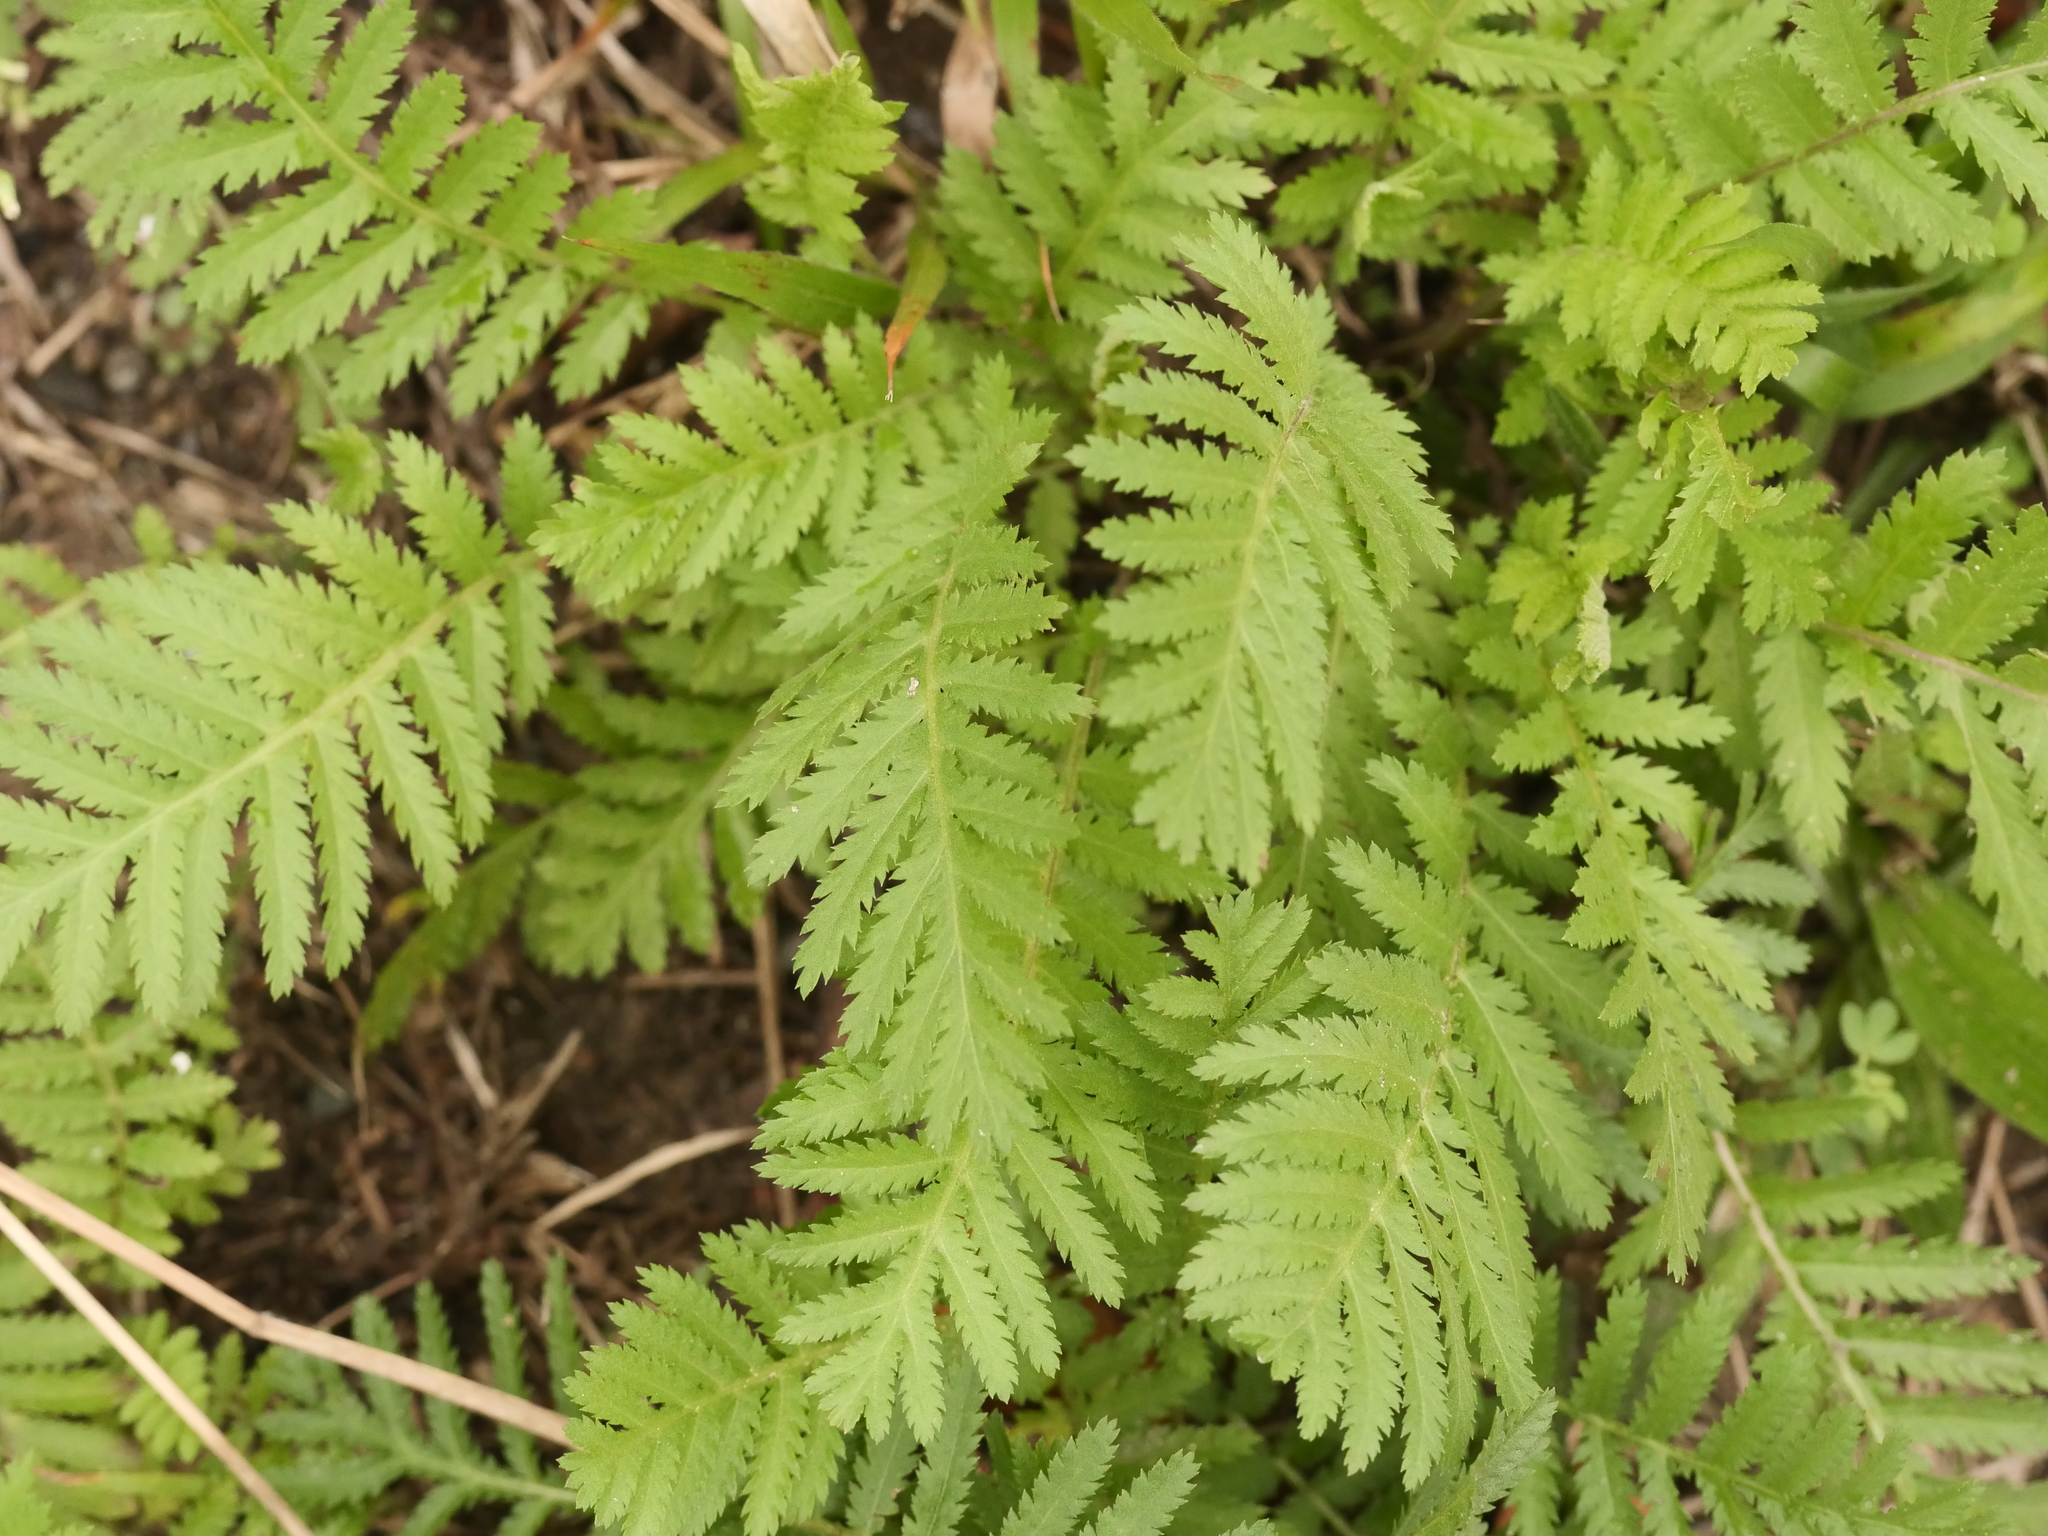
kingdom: Plantae
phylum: Tracheophyta
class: Magnoliopsida
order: Asterales
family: Asteraceae
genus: Tanacetum
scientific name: Tanacetum vulgare
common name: Common tansy
